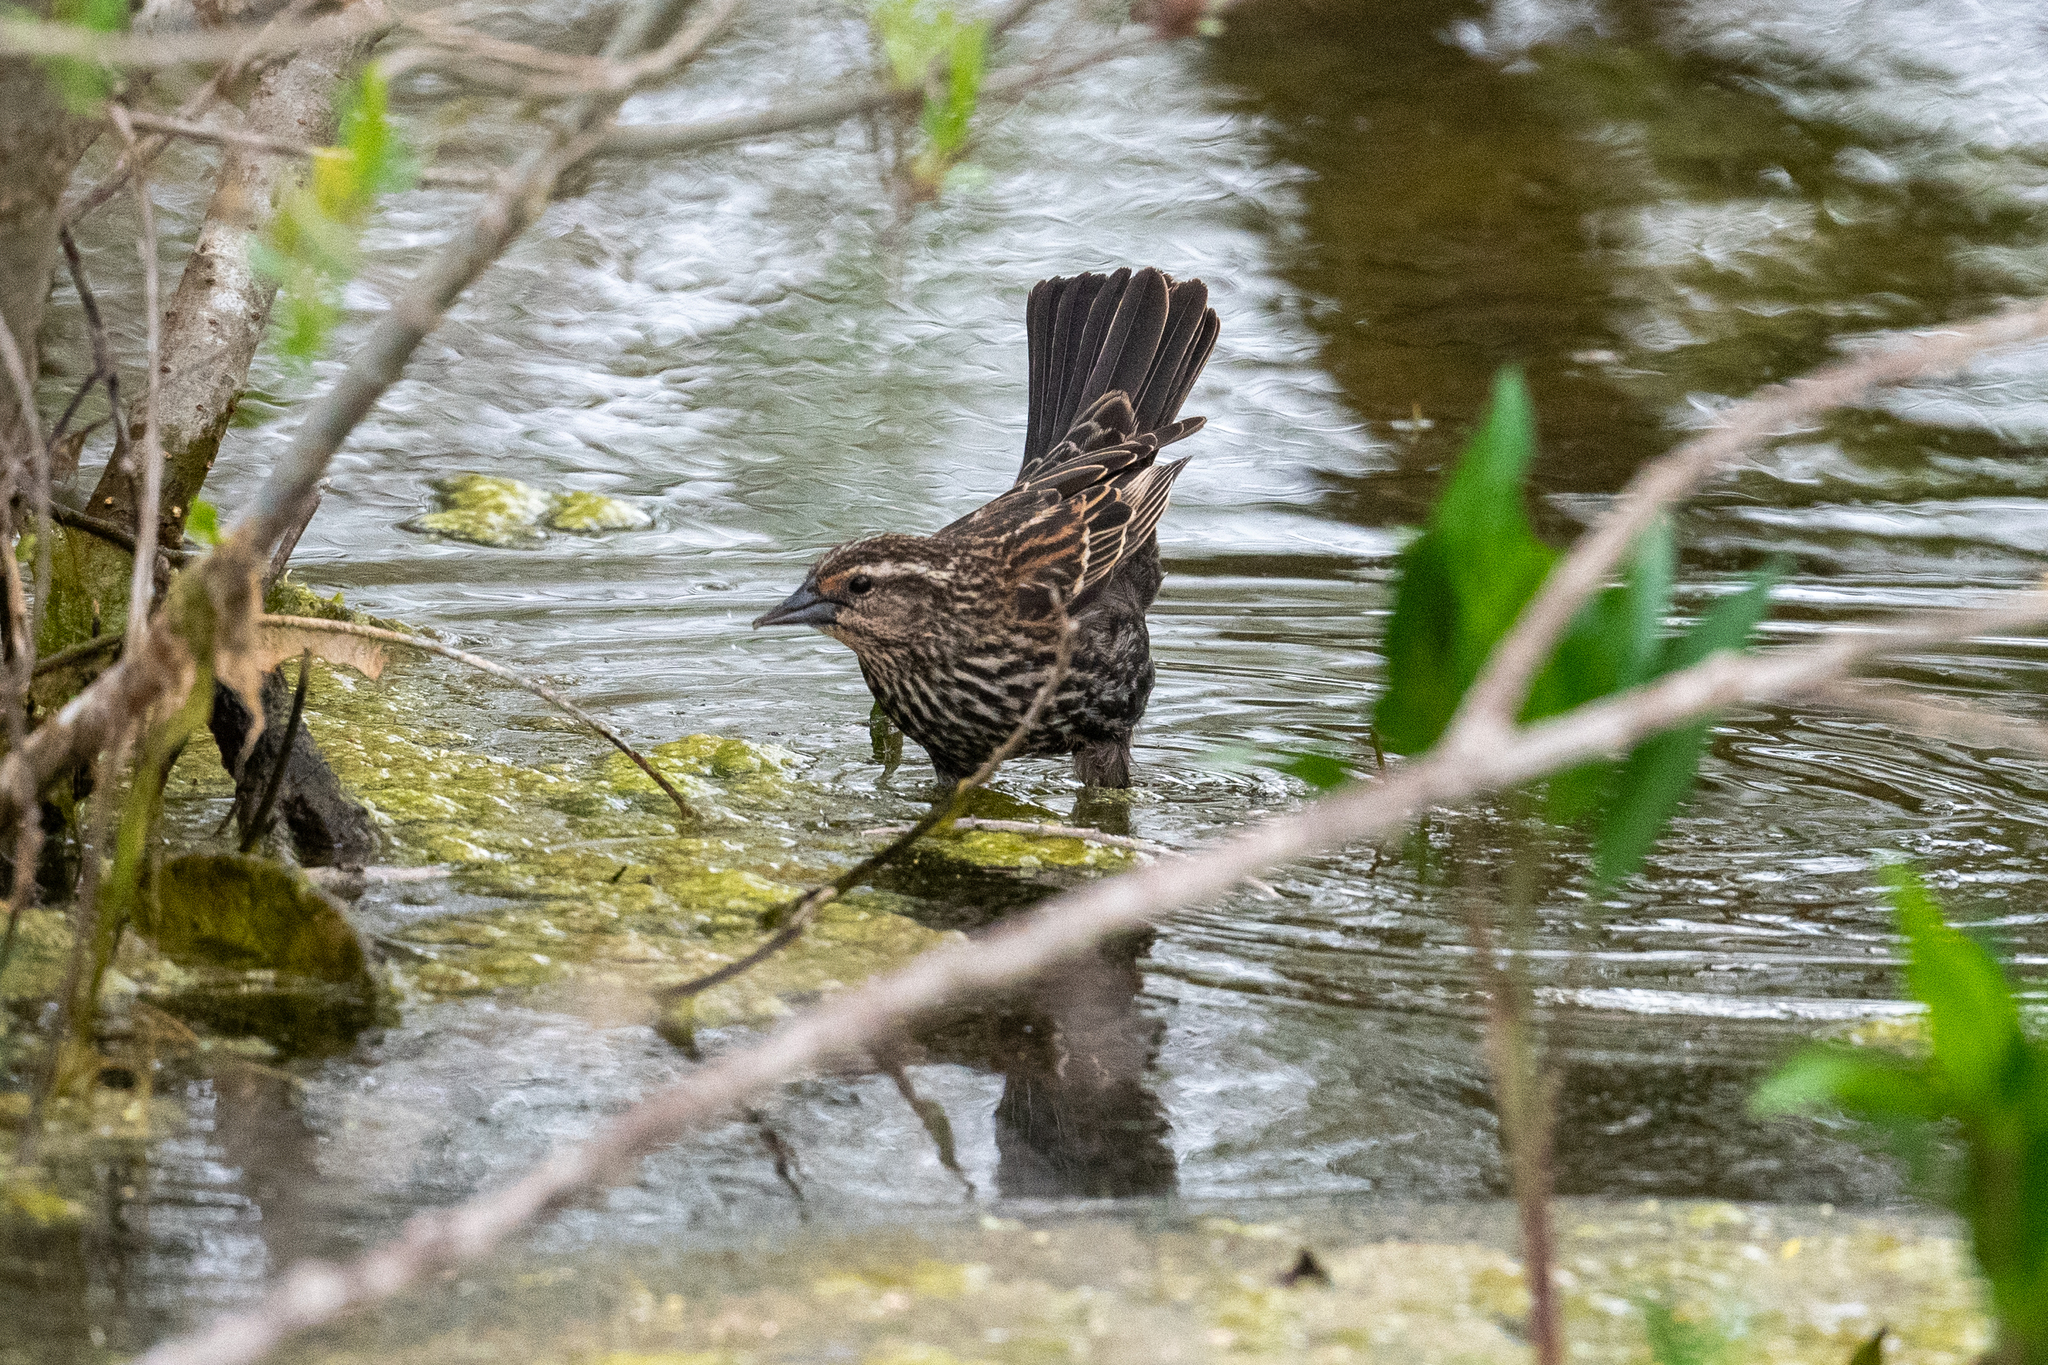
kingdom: Animalia
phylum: Chordata
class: Aves
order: Passeriformes
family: Icteridae
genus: Agelaius
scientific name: Agelaius phoeniceus
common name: Red-winged blackbird
